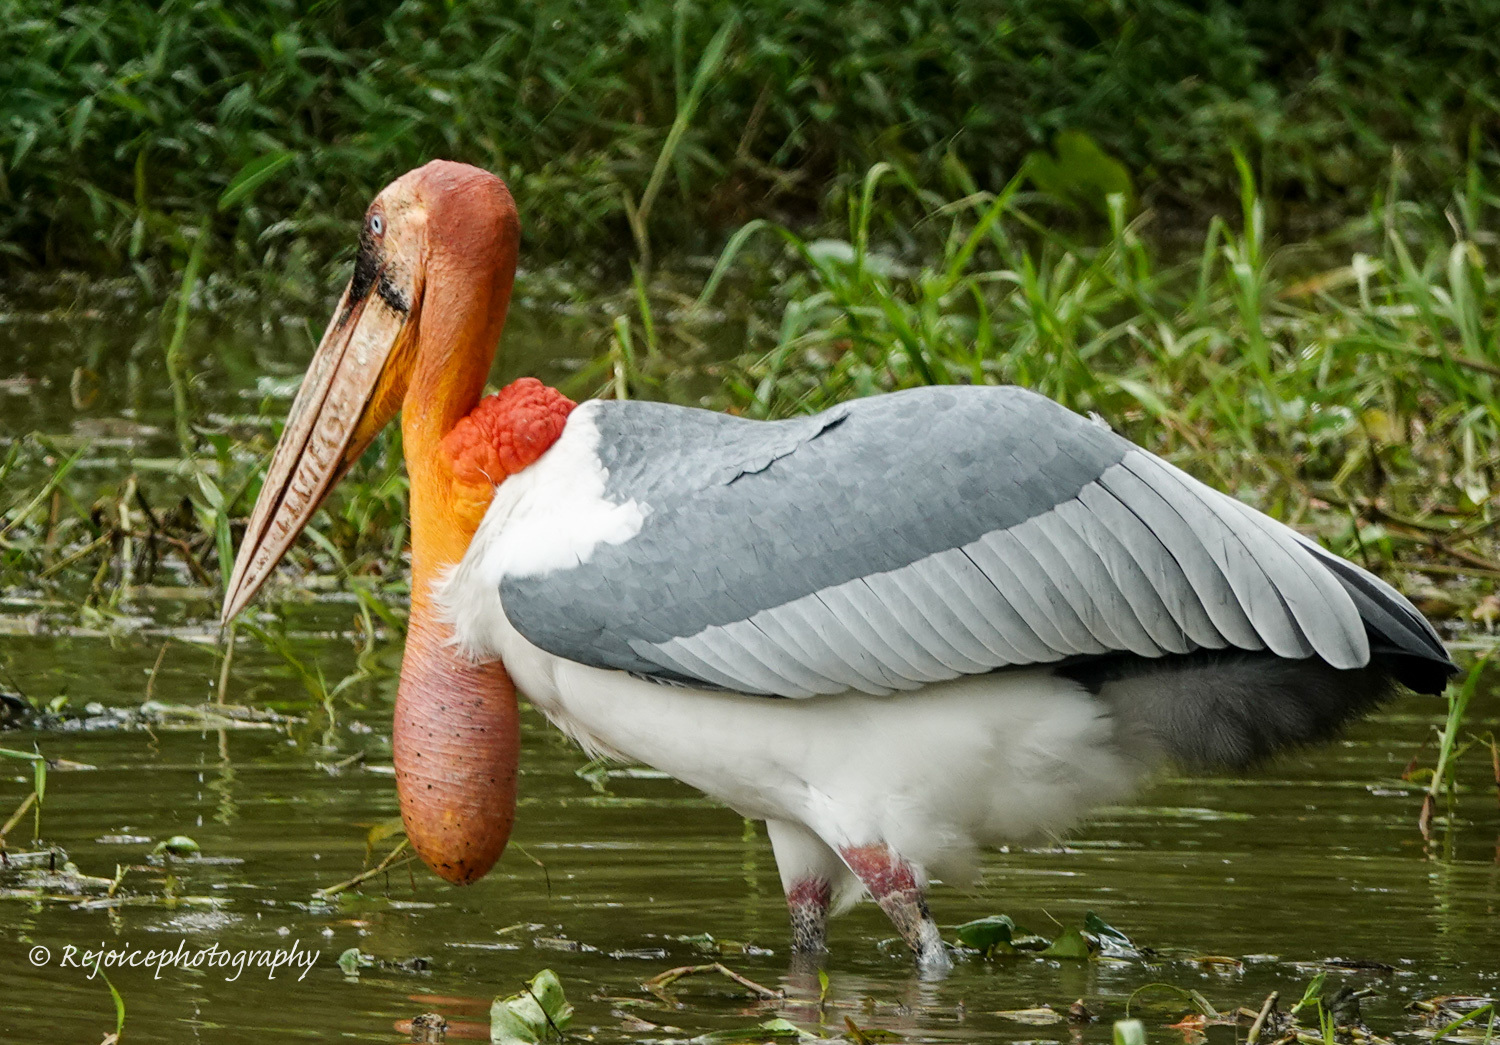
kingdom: Animalia
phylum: Chordata
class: Aves
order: Ciconiiformes
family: Ciconiidae
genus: Leptoptilos
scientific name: Leptoptilos dubius
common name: Greater adjutant
